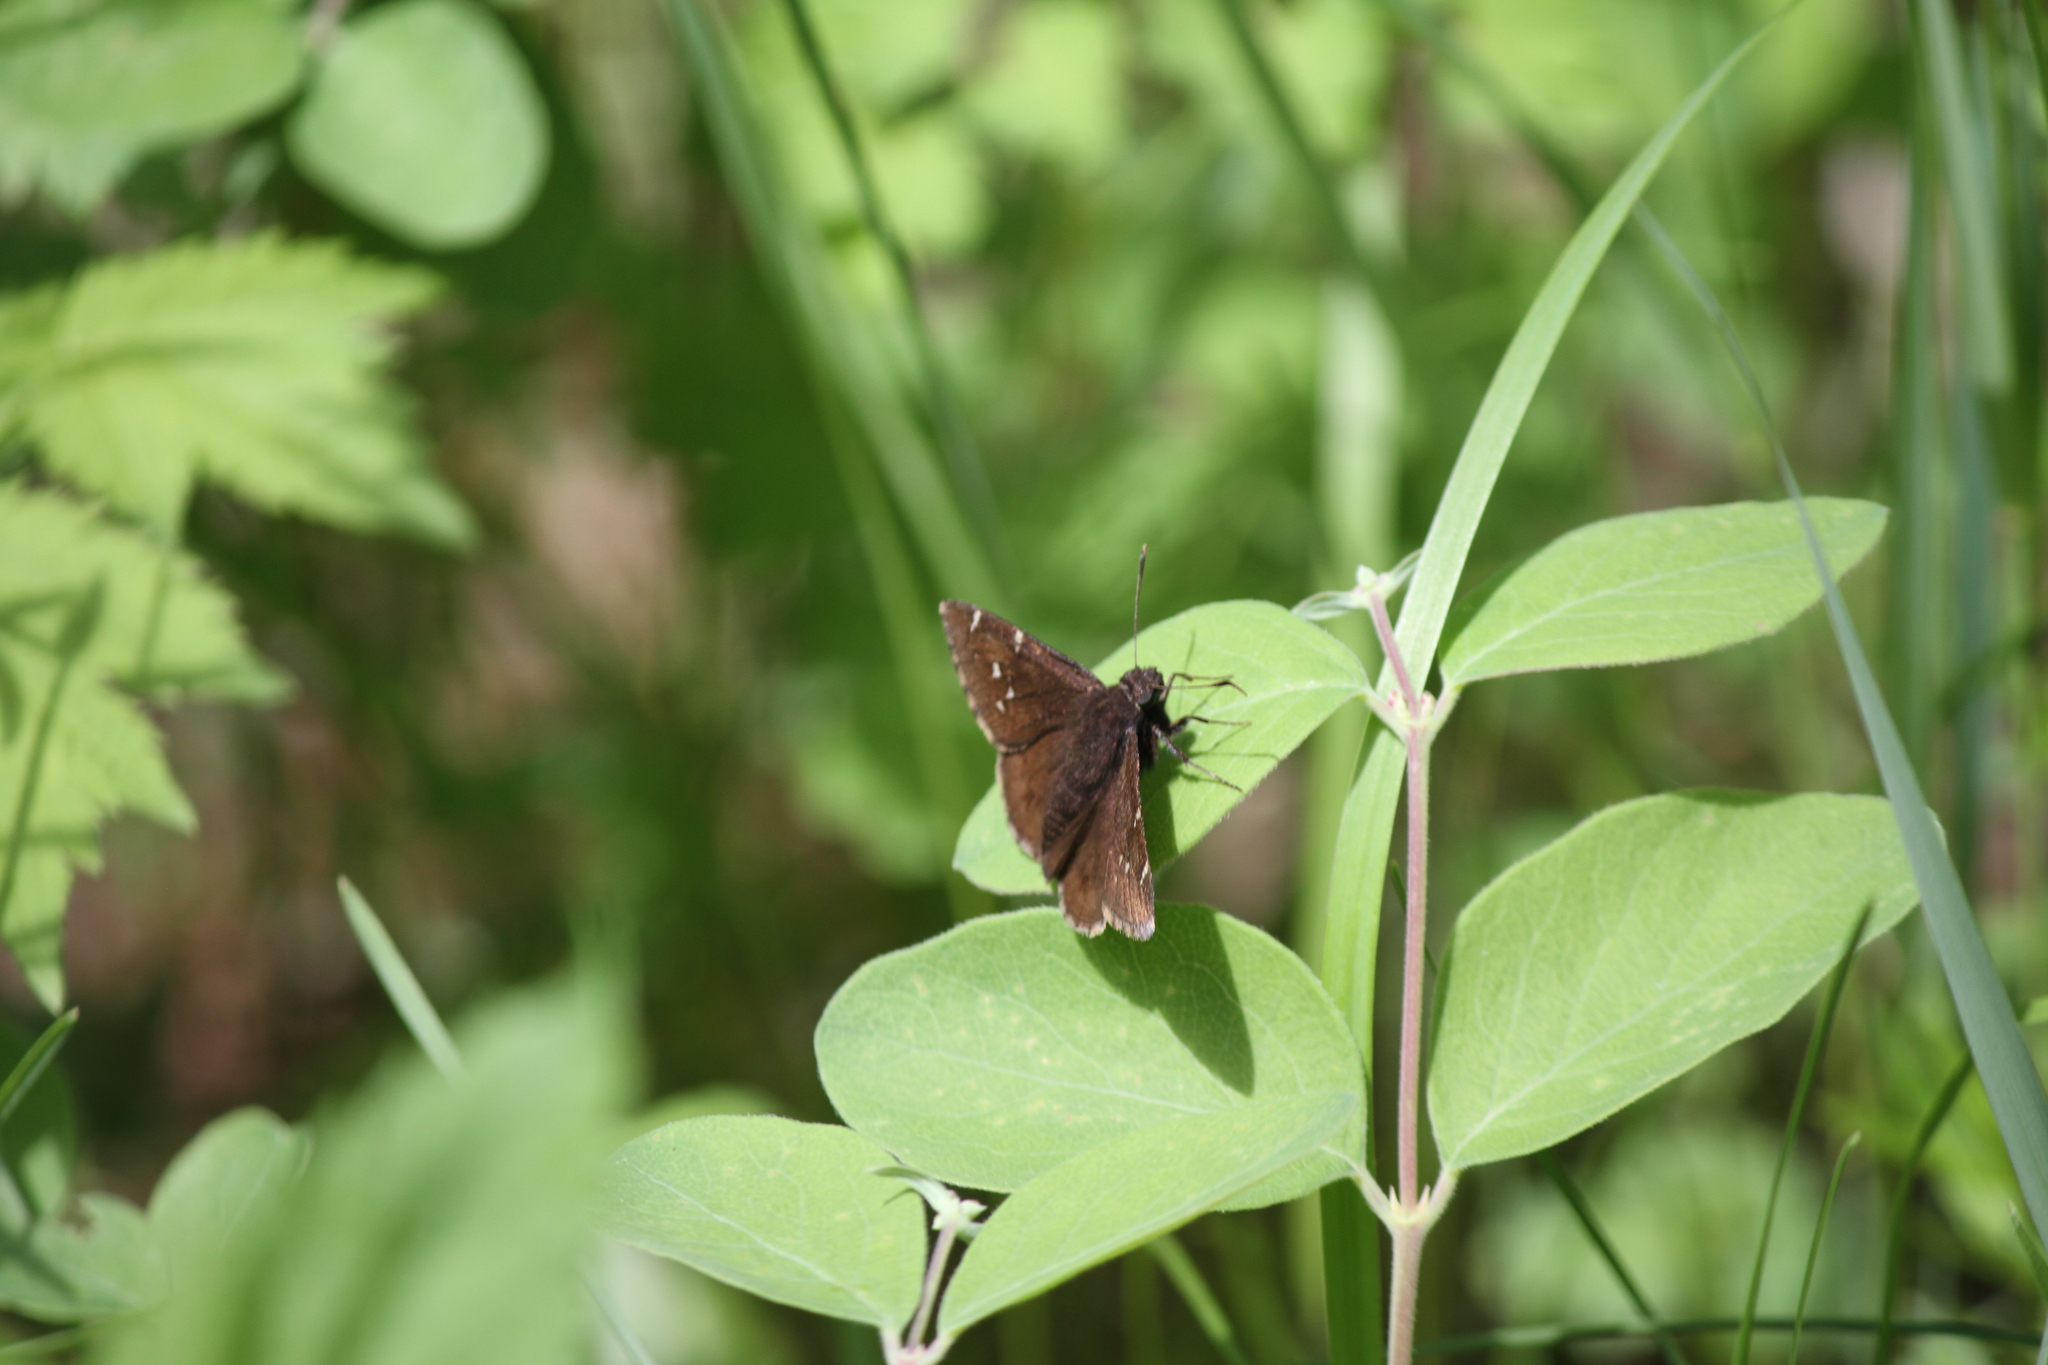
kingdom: Animalia
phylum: Arthropoda
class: Insecta
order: Lepidoptera
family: Hesperiidae
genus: Thorybes
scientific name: Thorybes pylades
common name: Northern cloudywing
